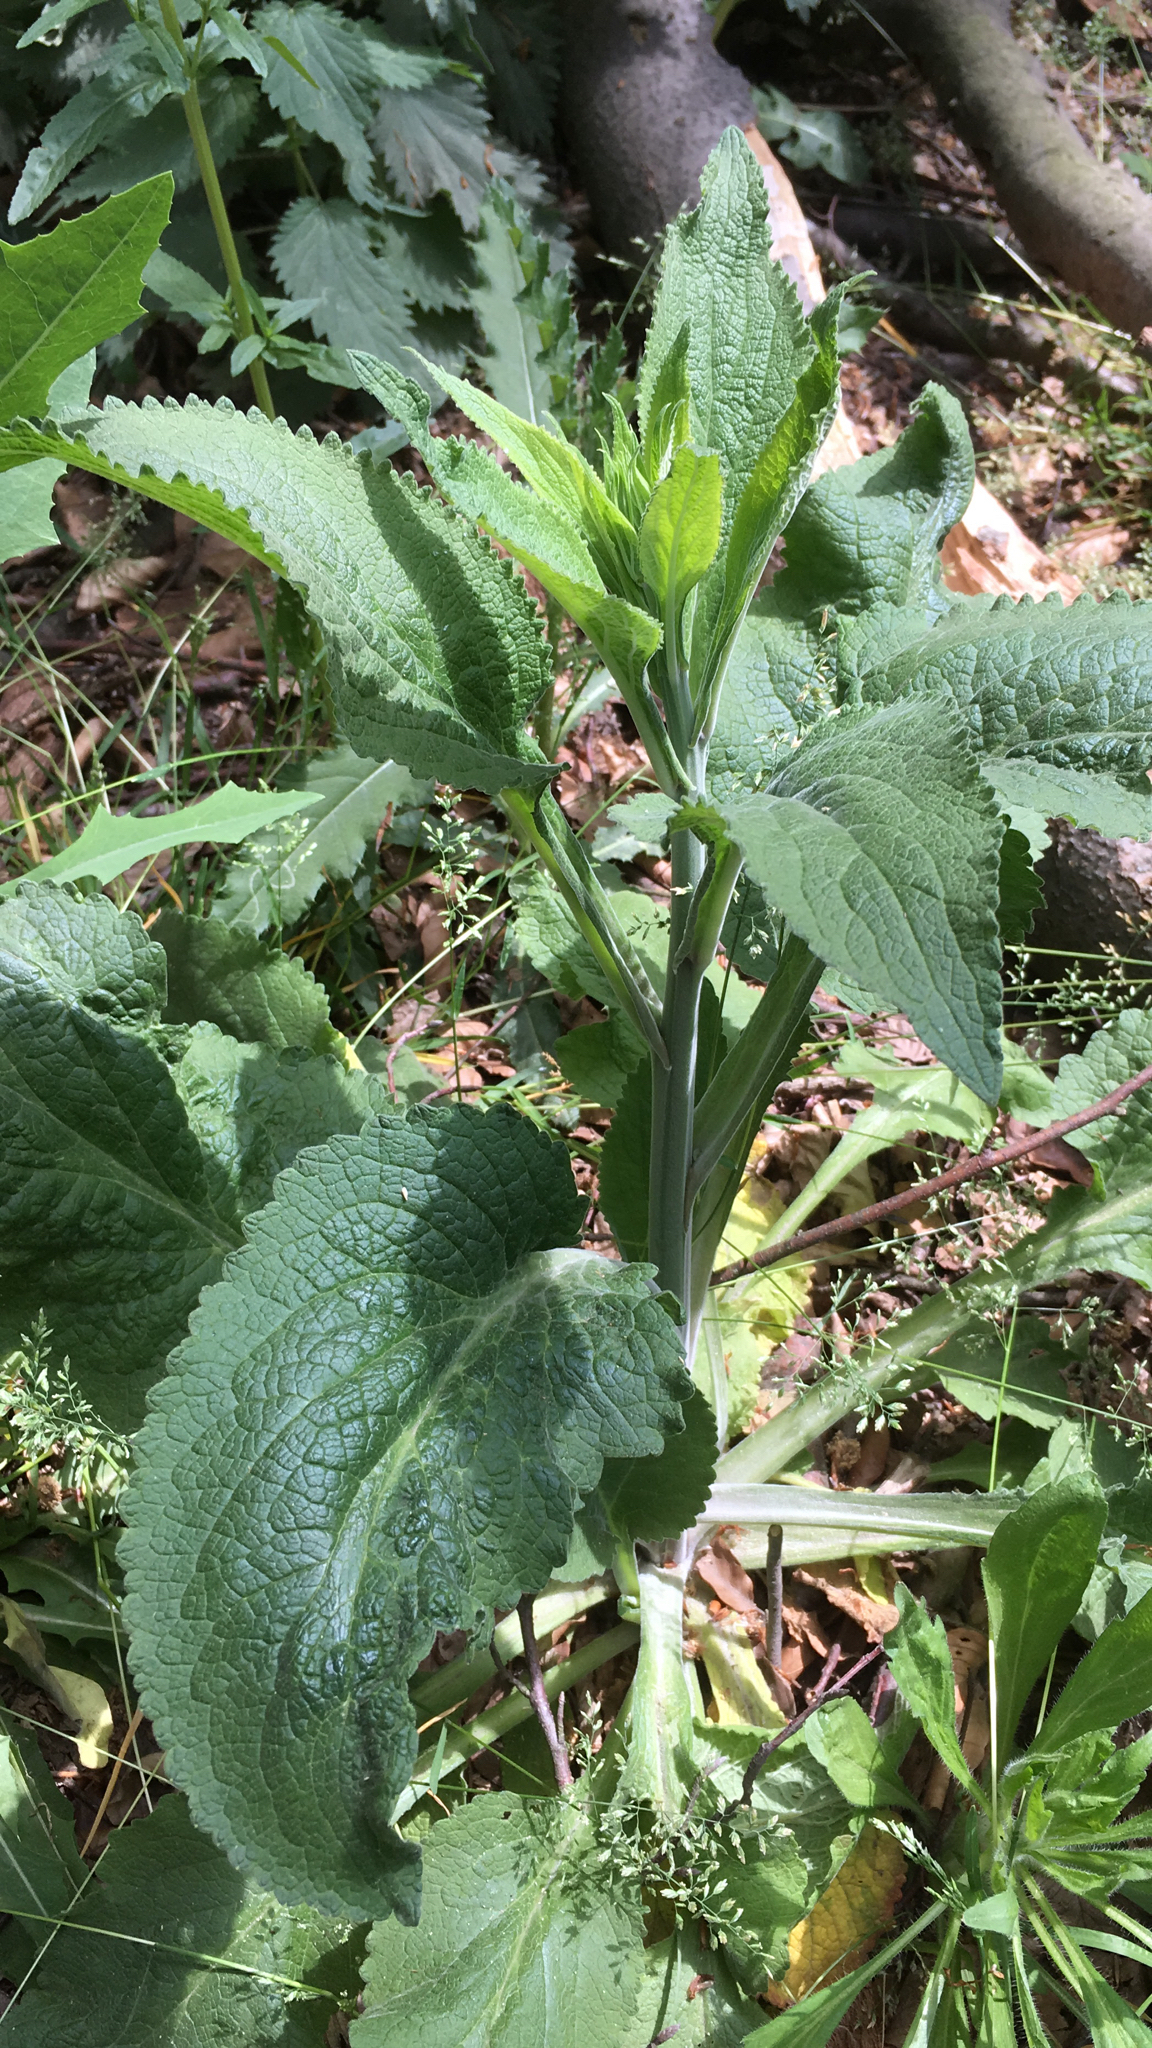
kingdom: Plantae
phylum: Tracheophyta
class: Magnoliopsida
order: Lamiales
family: Plantaginaceae
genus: Digitalis
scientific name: Digitalis purpurea
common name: Foxglove
